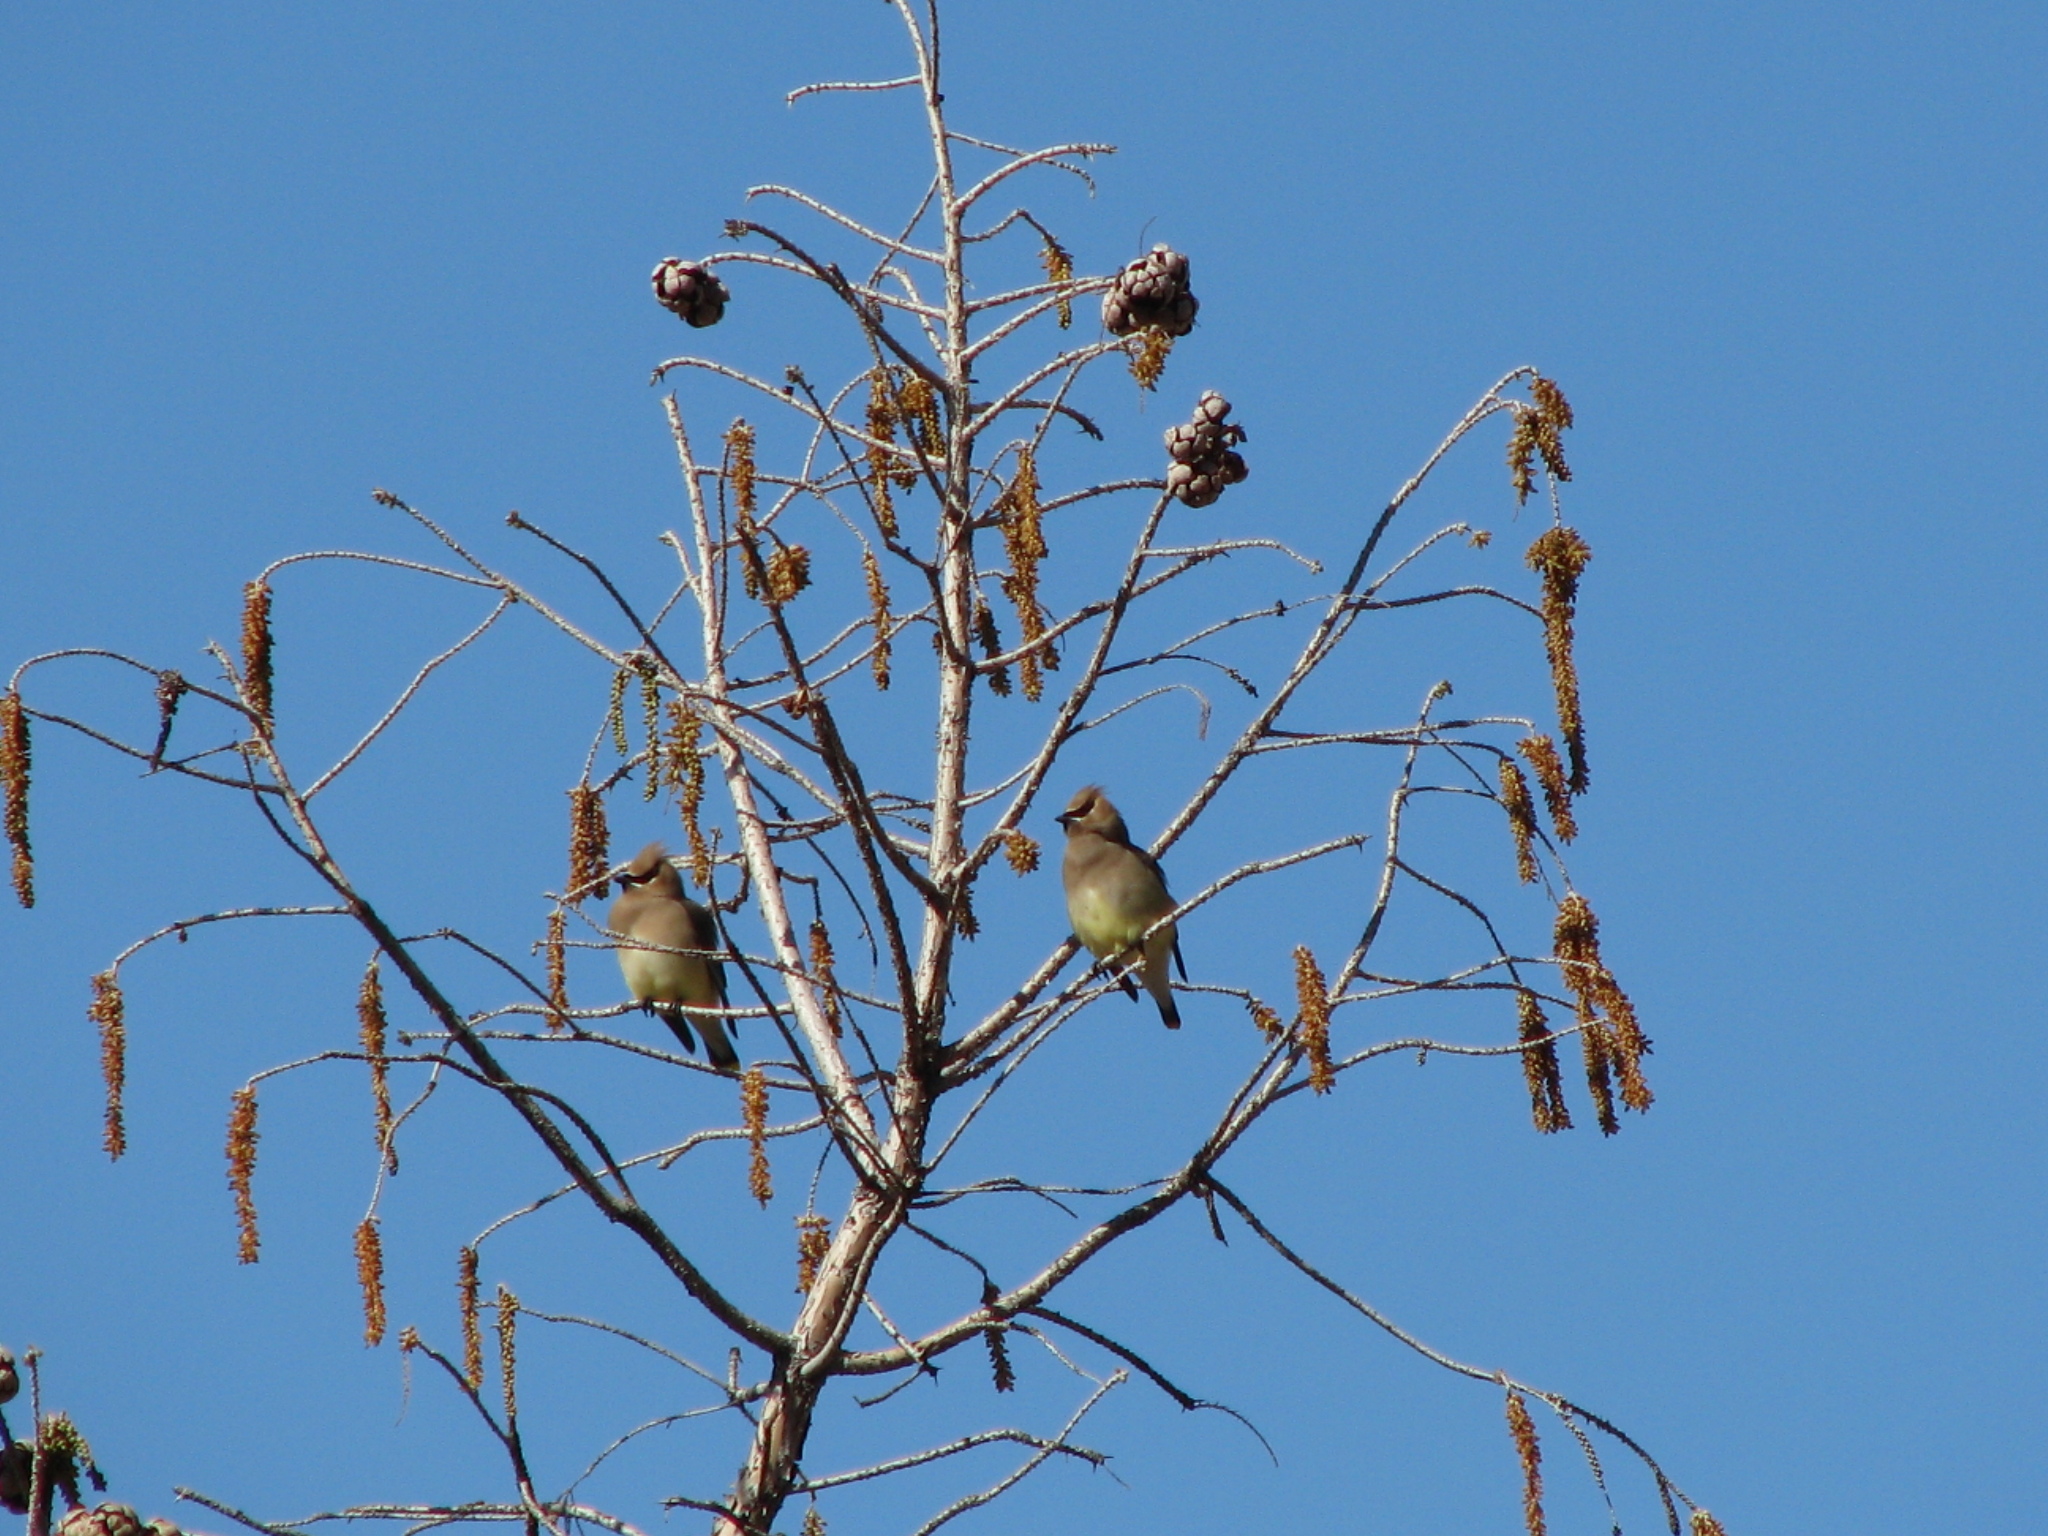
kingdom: Animalia
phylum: Chordata
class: Aves
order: Passeriformes
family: Bombycillidae
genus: Bombycilla
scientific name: Bombycilla cedrorum
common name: Cedar waxwing
